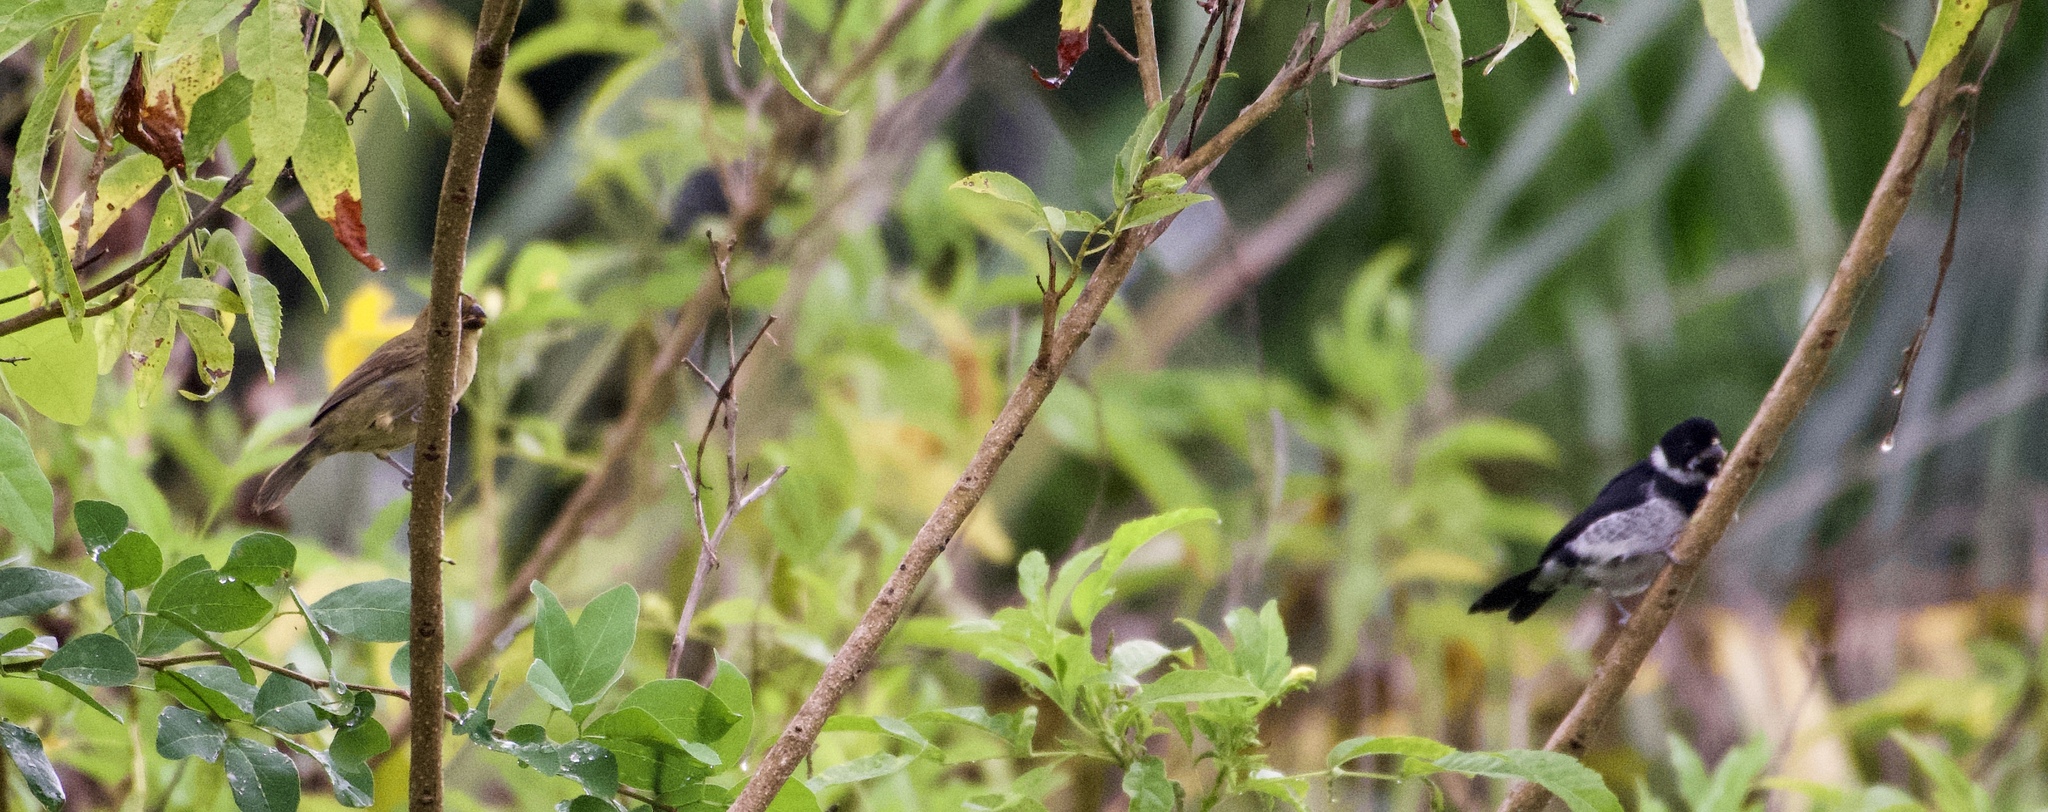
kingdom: Animalia
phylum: Chordata
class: Aves
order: Passeriformes
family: Thraupidae
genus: Sporophila
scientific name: Sporophila corvina
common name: Variable seedeater
